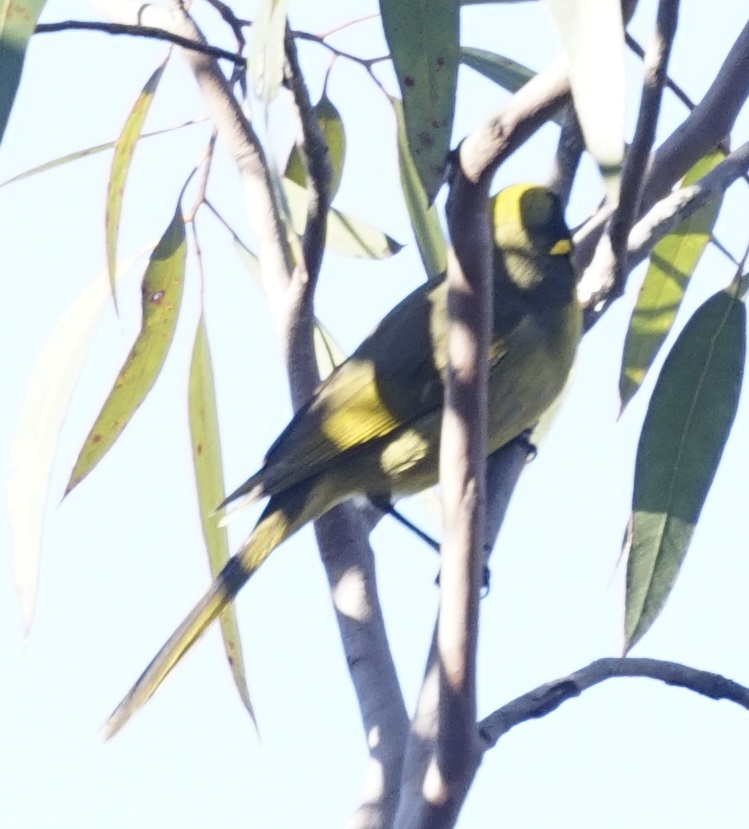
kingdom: Animalia
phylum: Chordata
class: Aves
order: Passeriformes
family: Meliphagidae
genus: Lichenostomus
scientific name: Lichenostomus melanops
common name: Yellow-tufted honeyeater
